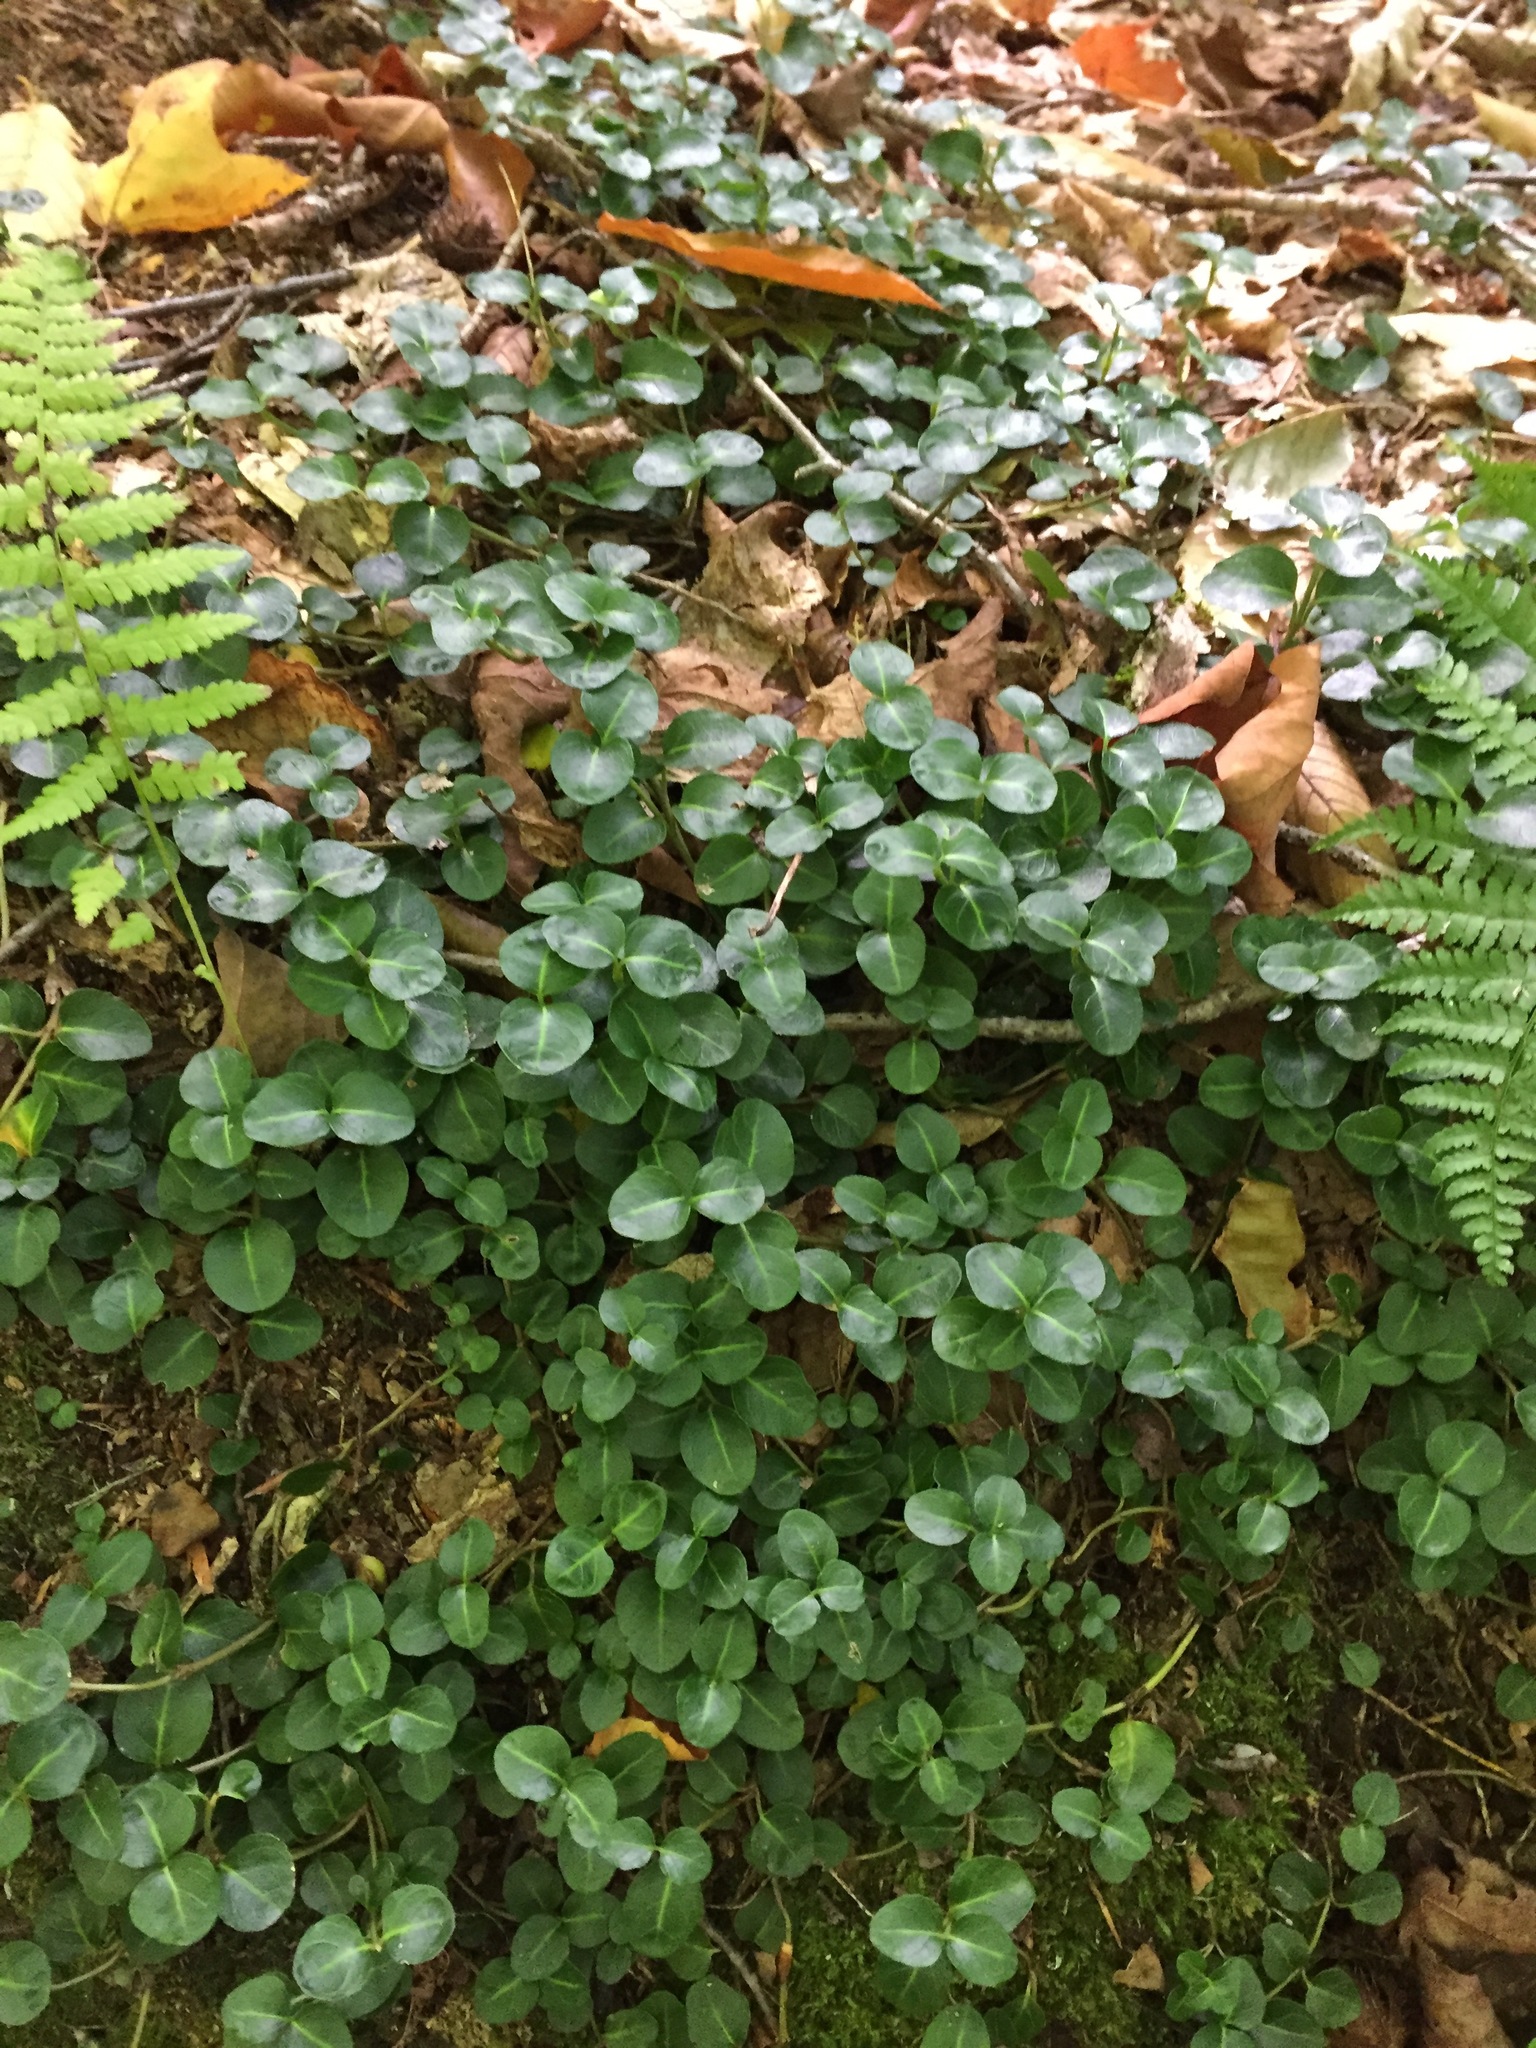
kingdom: Plantae
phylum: Tracheophyta
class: Magnoliopsida
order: Gentianales
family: Rubiaceae
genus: Mitchella
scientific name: Mitchella repens
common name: Partridge-berry
